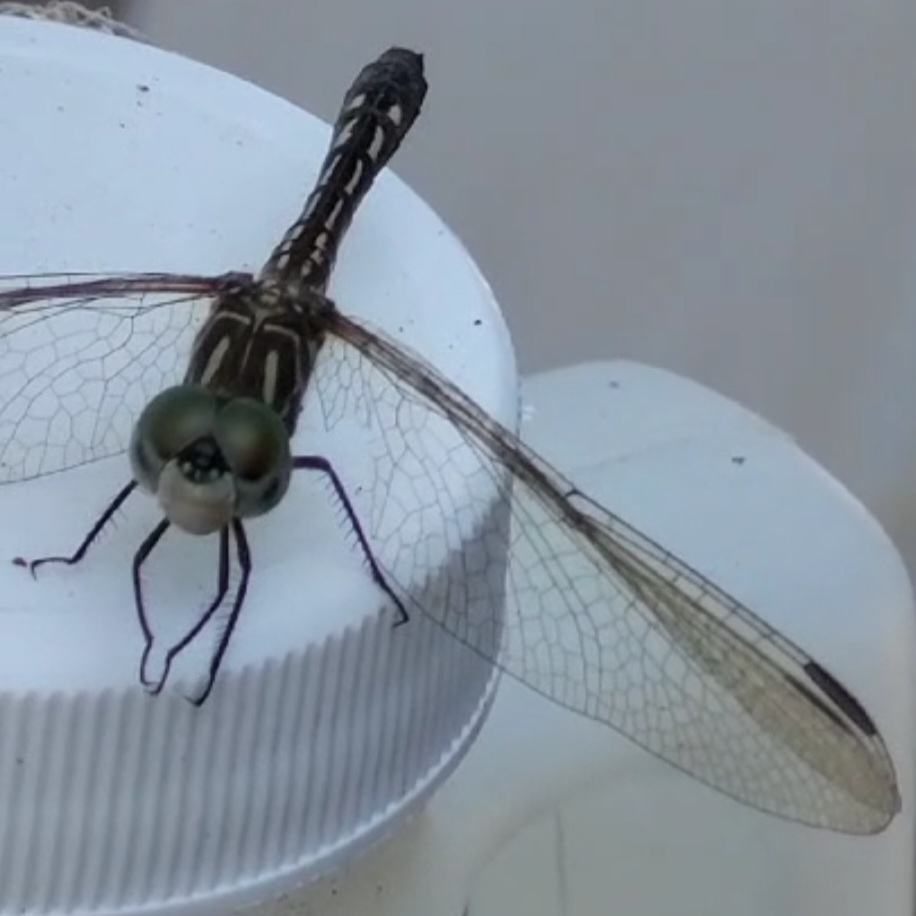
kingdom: Animalia
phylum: Arthropoda
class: Insecta
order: Odonata
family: Libellulidae
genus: Pachydiplax
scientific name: Pachydiplax longipennis
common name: Blue dasher
